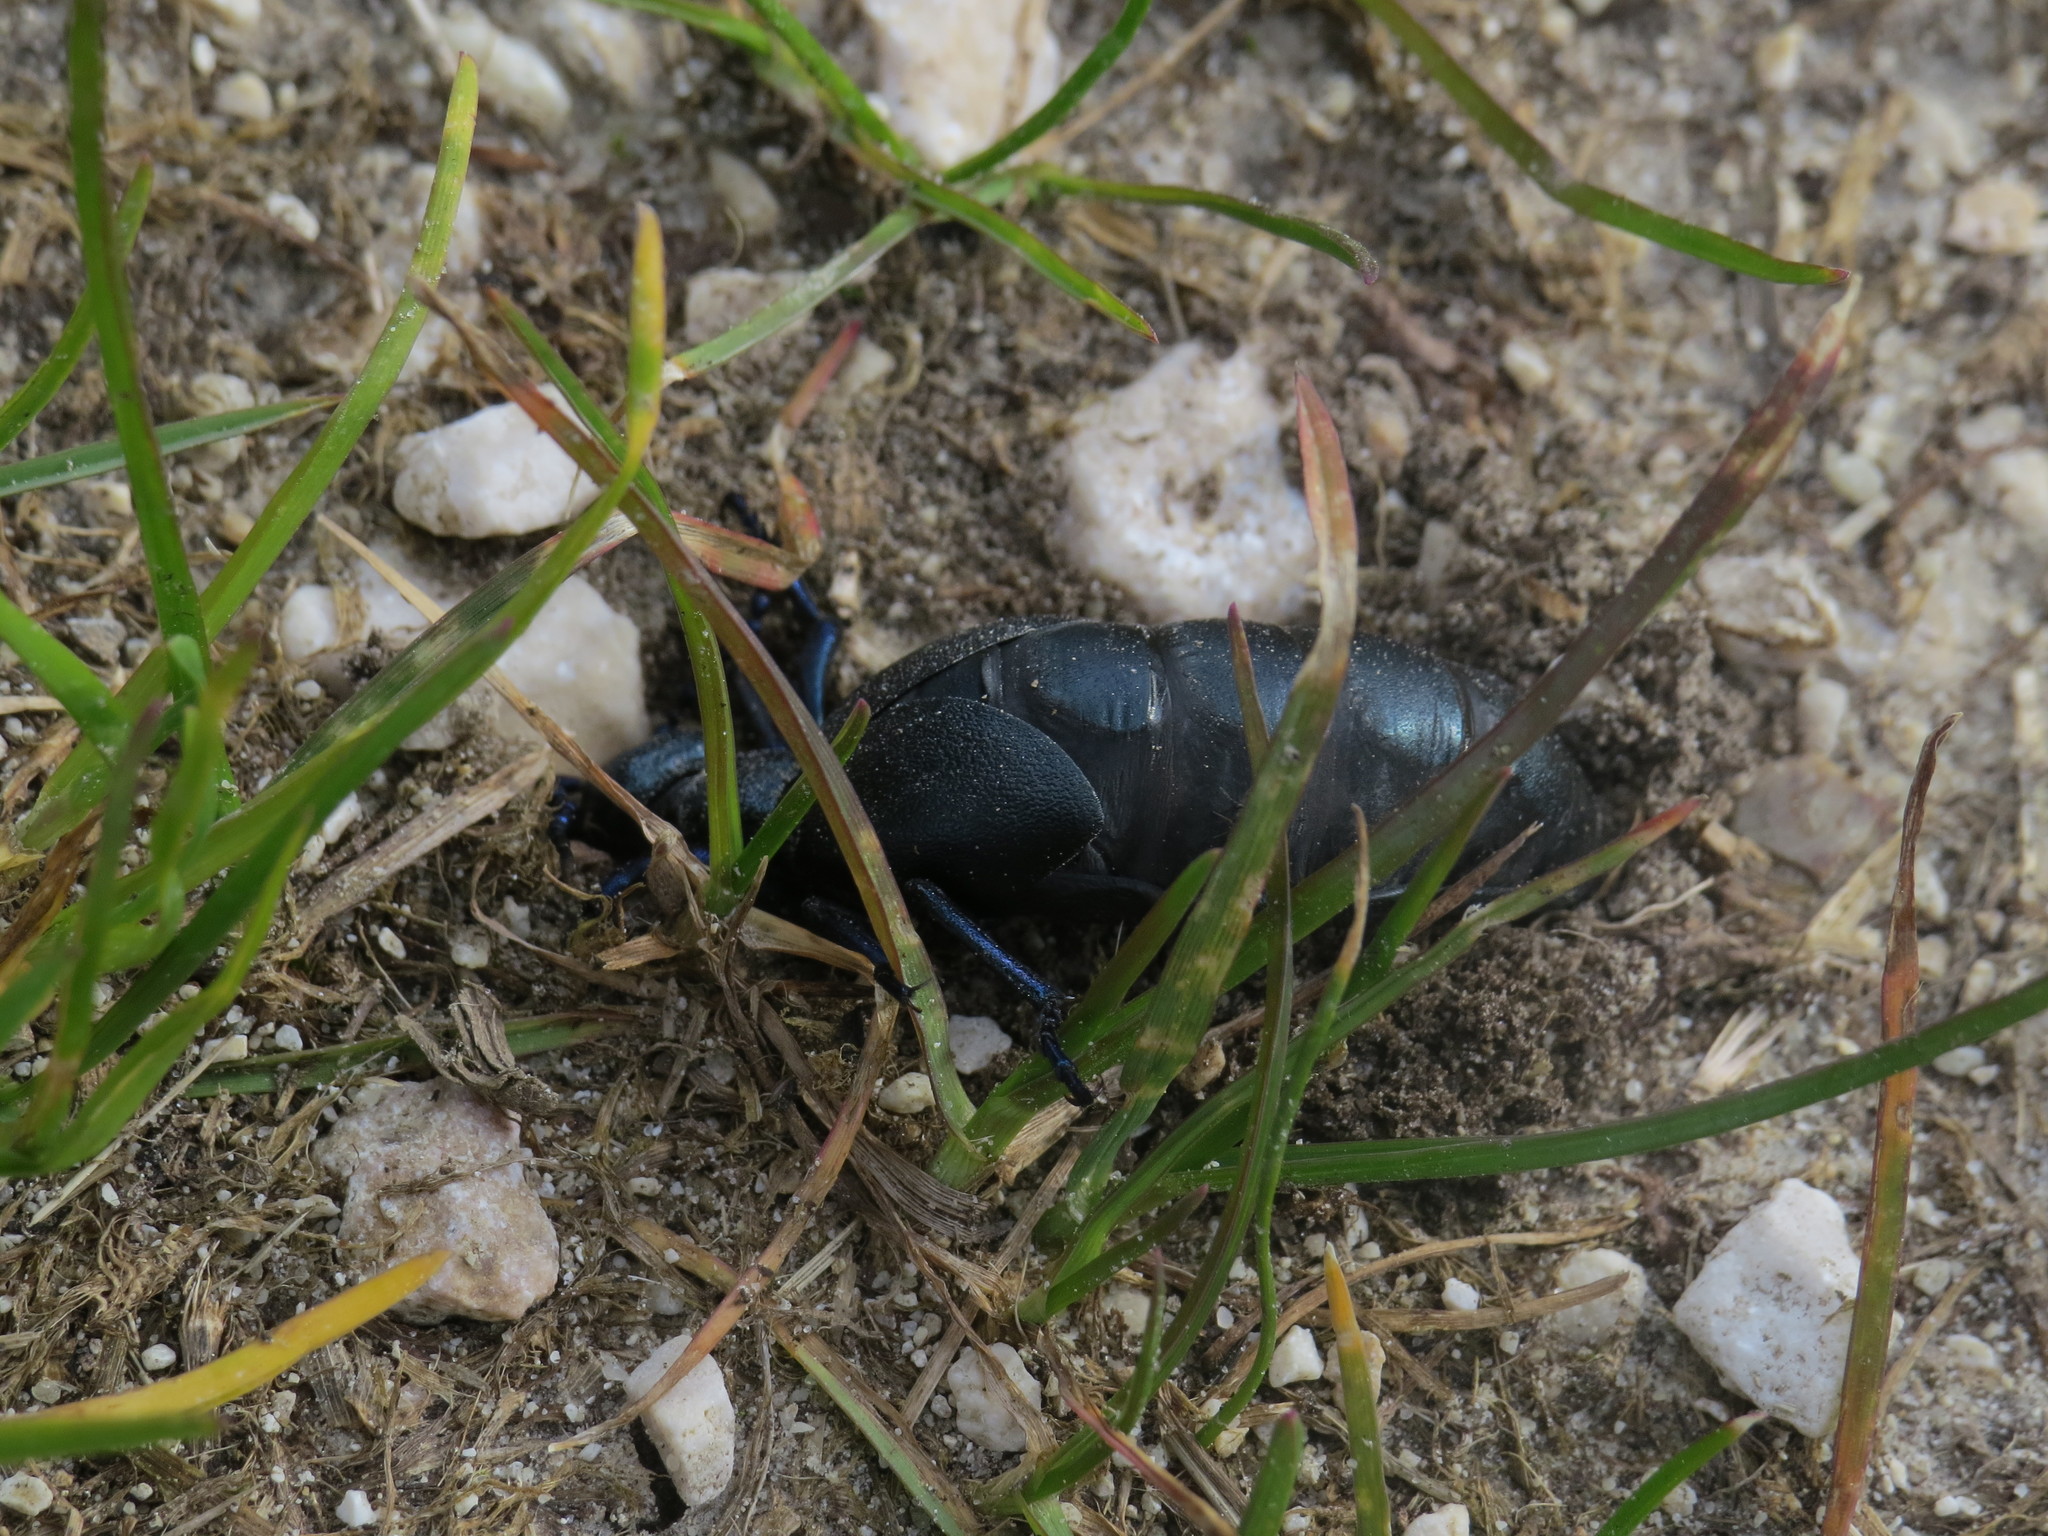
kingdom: Animalia
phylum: Arthropoda
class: Insecta
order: Coleoptera
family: Meloidae
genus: Meloe
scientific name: Meloe violaceus
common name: Violet oil-beetle
